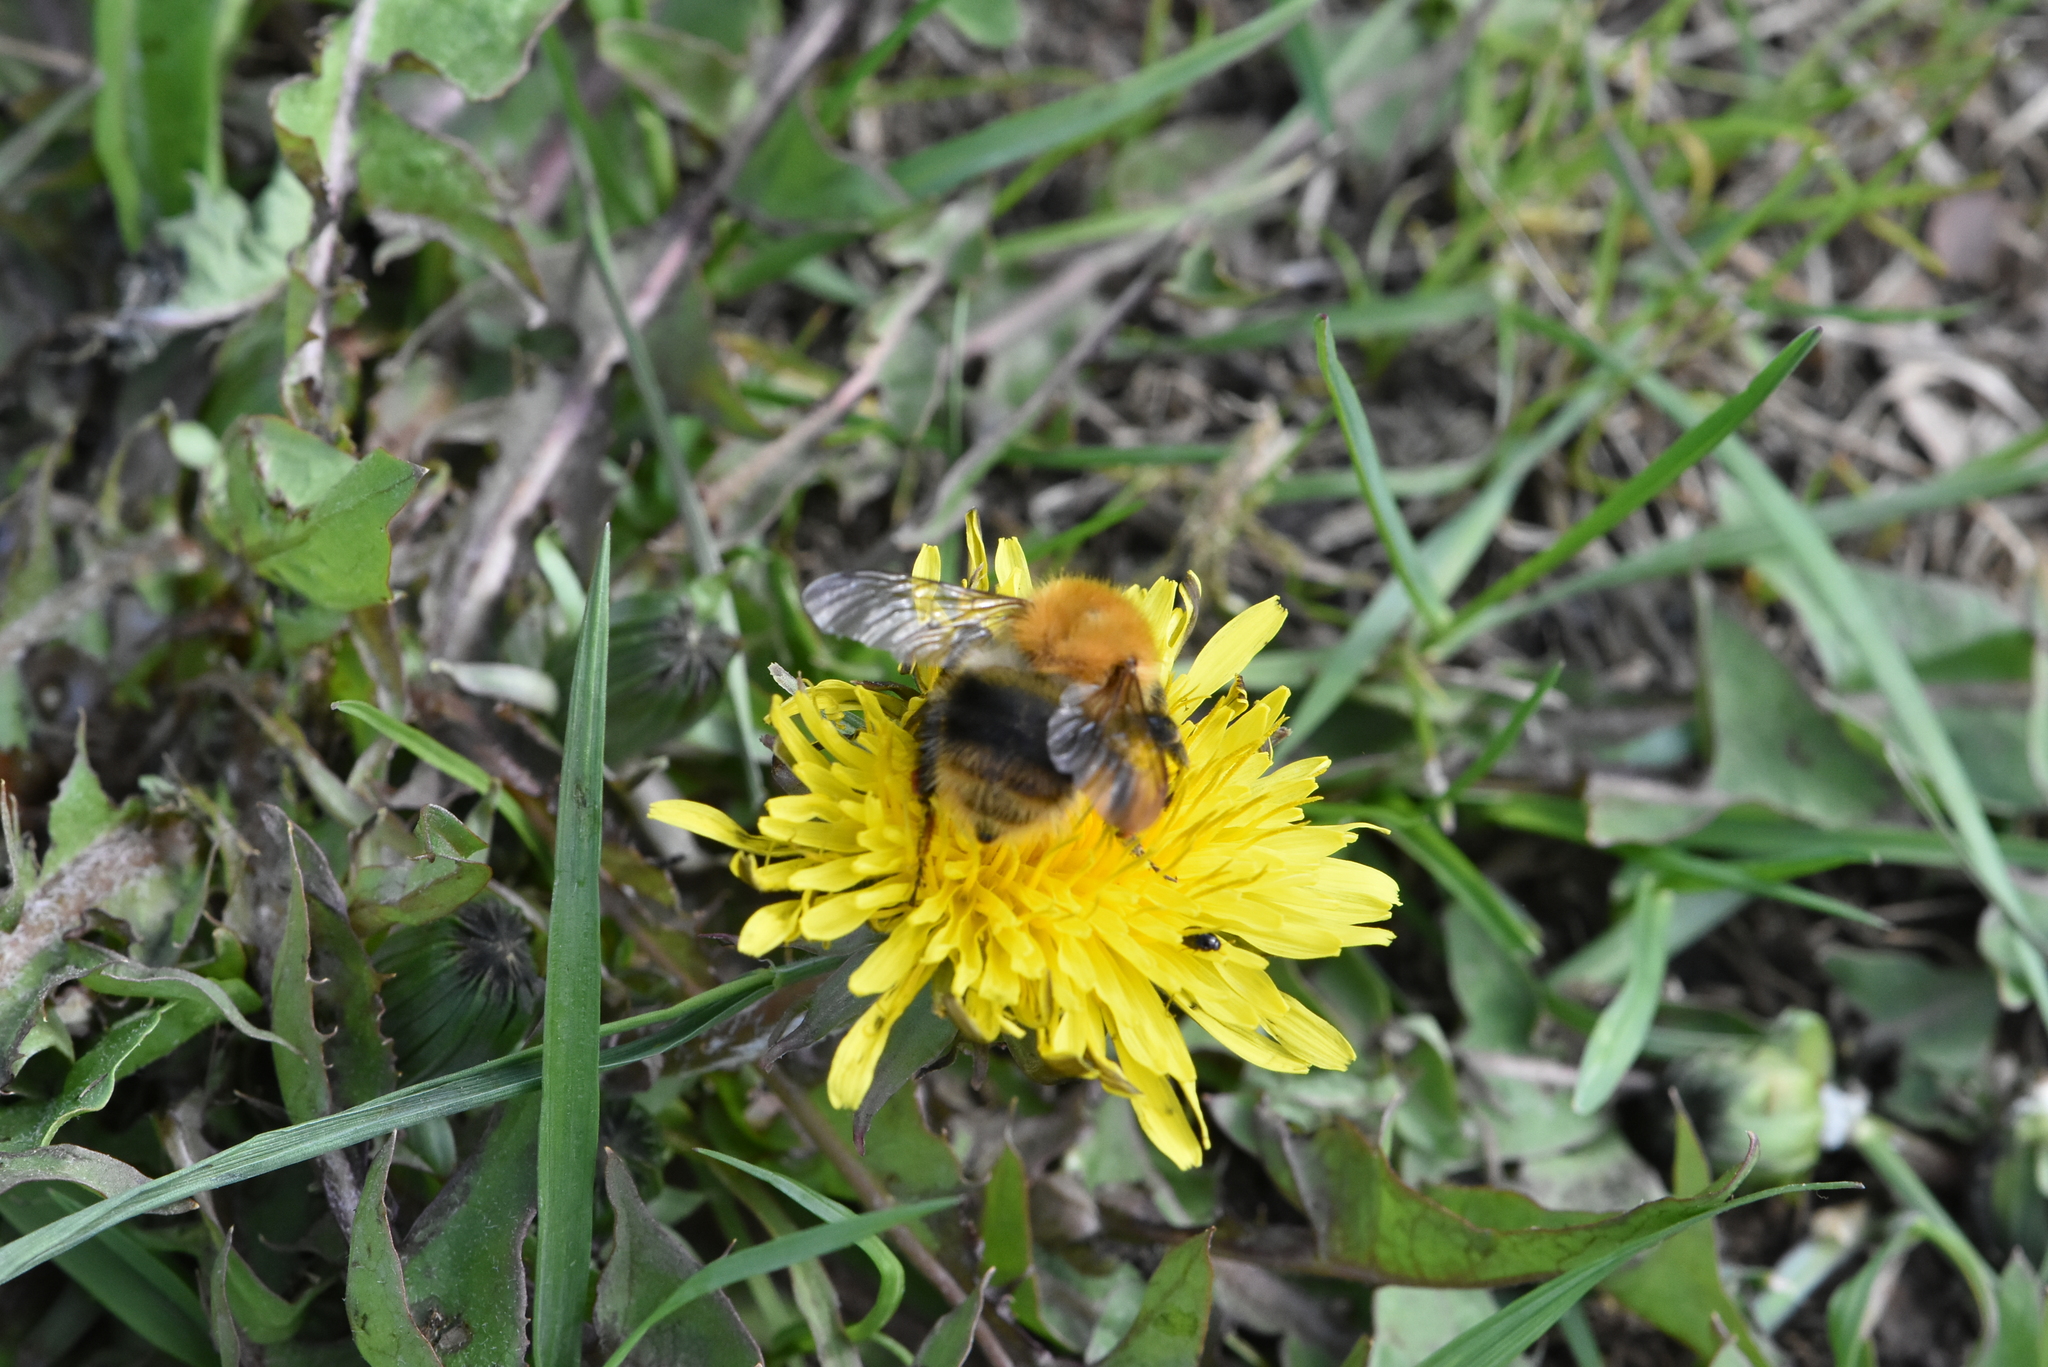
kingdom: Animalia
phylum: Arthropoda
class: Insecta
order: Hymenoptera
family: Apidae
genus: Bombus
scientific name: Bombus pascuorum
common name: Common carder bee
